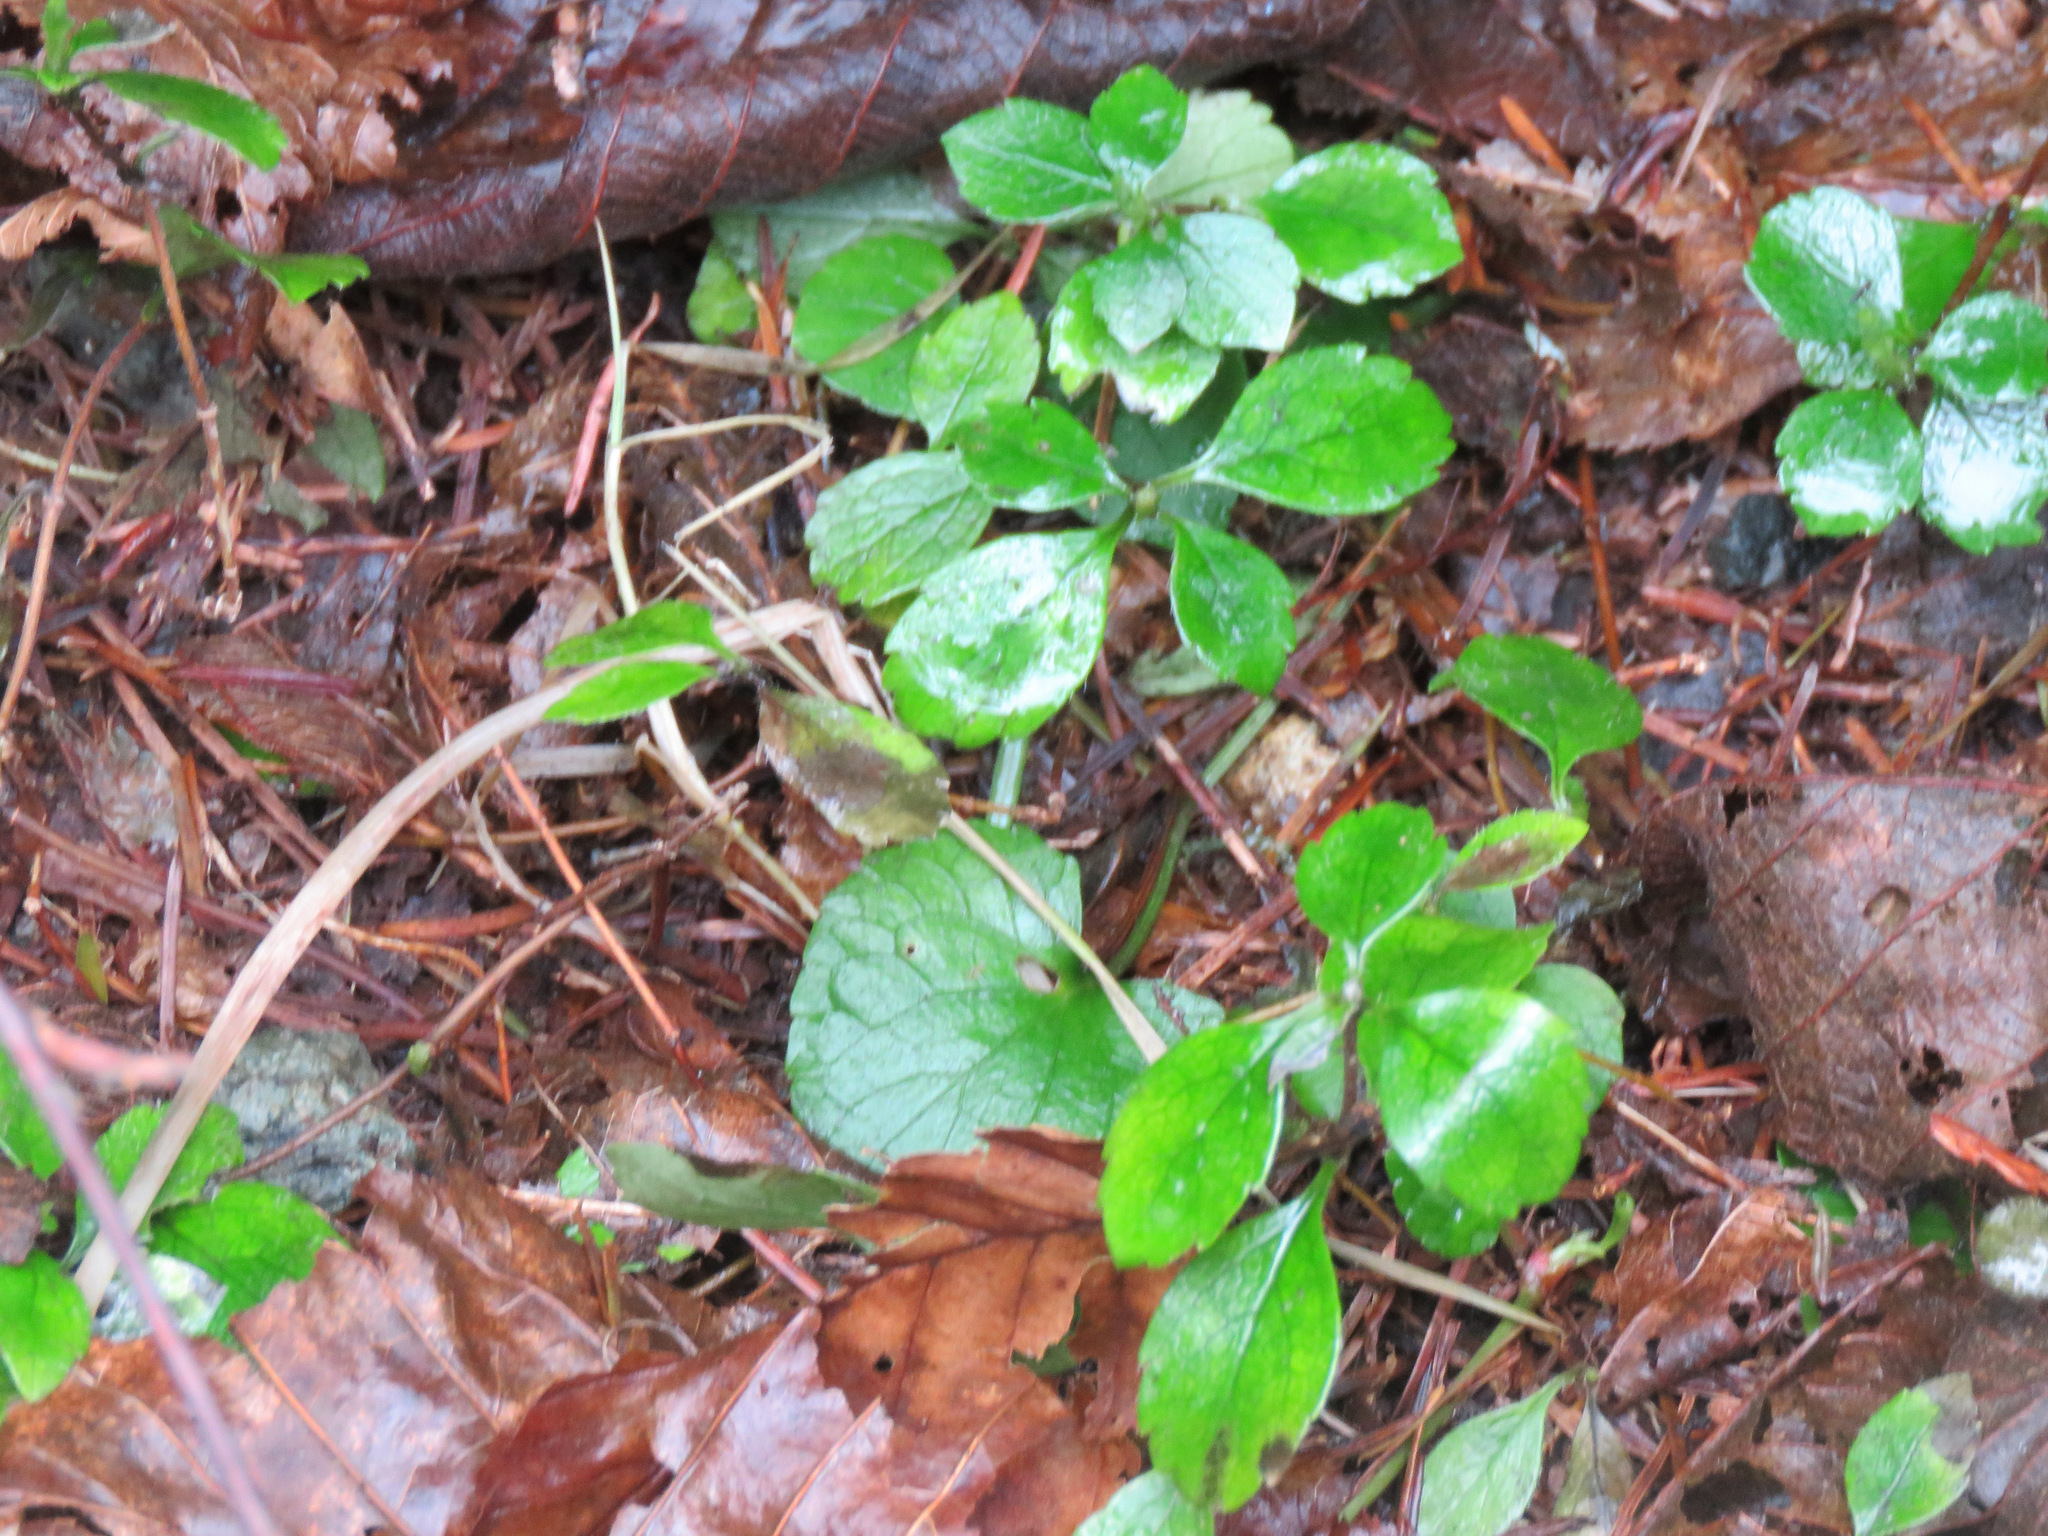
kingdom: Plantae
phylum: Tracheophyta
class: Magnoliopsida
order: Dipsacales
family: Caprifoliaceae
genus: Linnaea
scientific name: Linnaea borealis
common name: Twinflower
